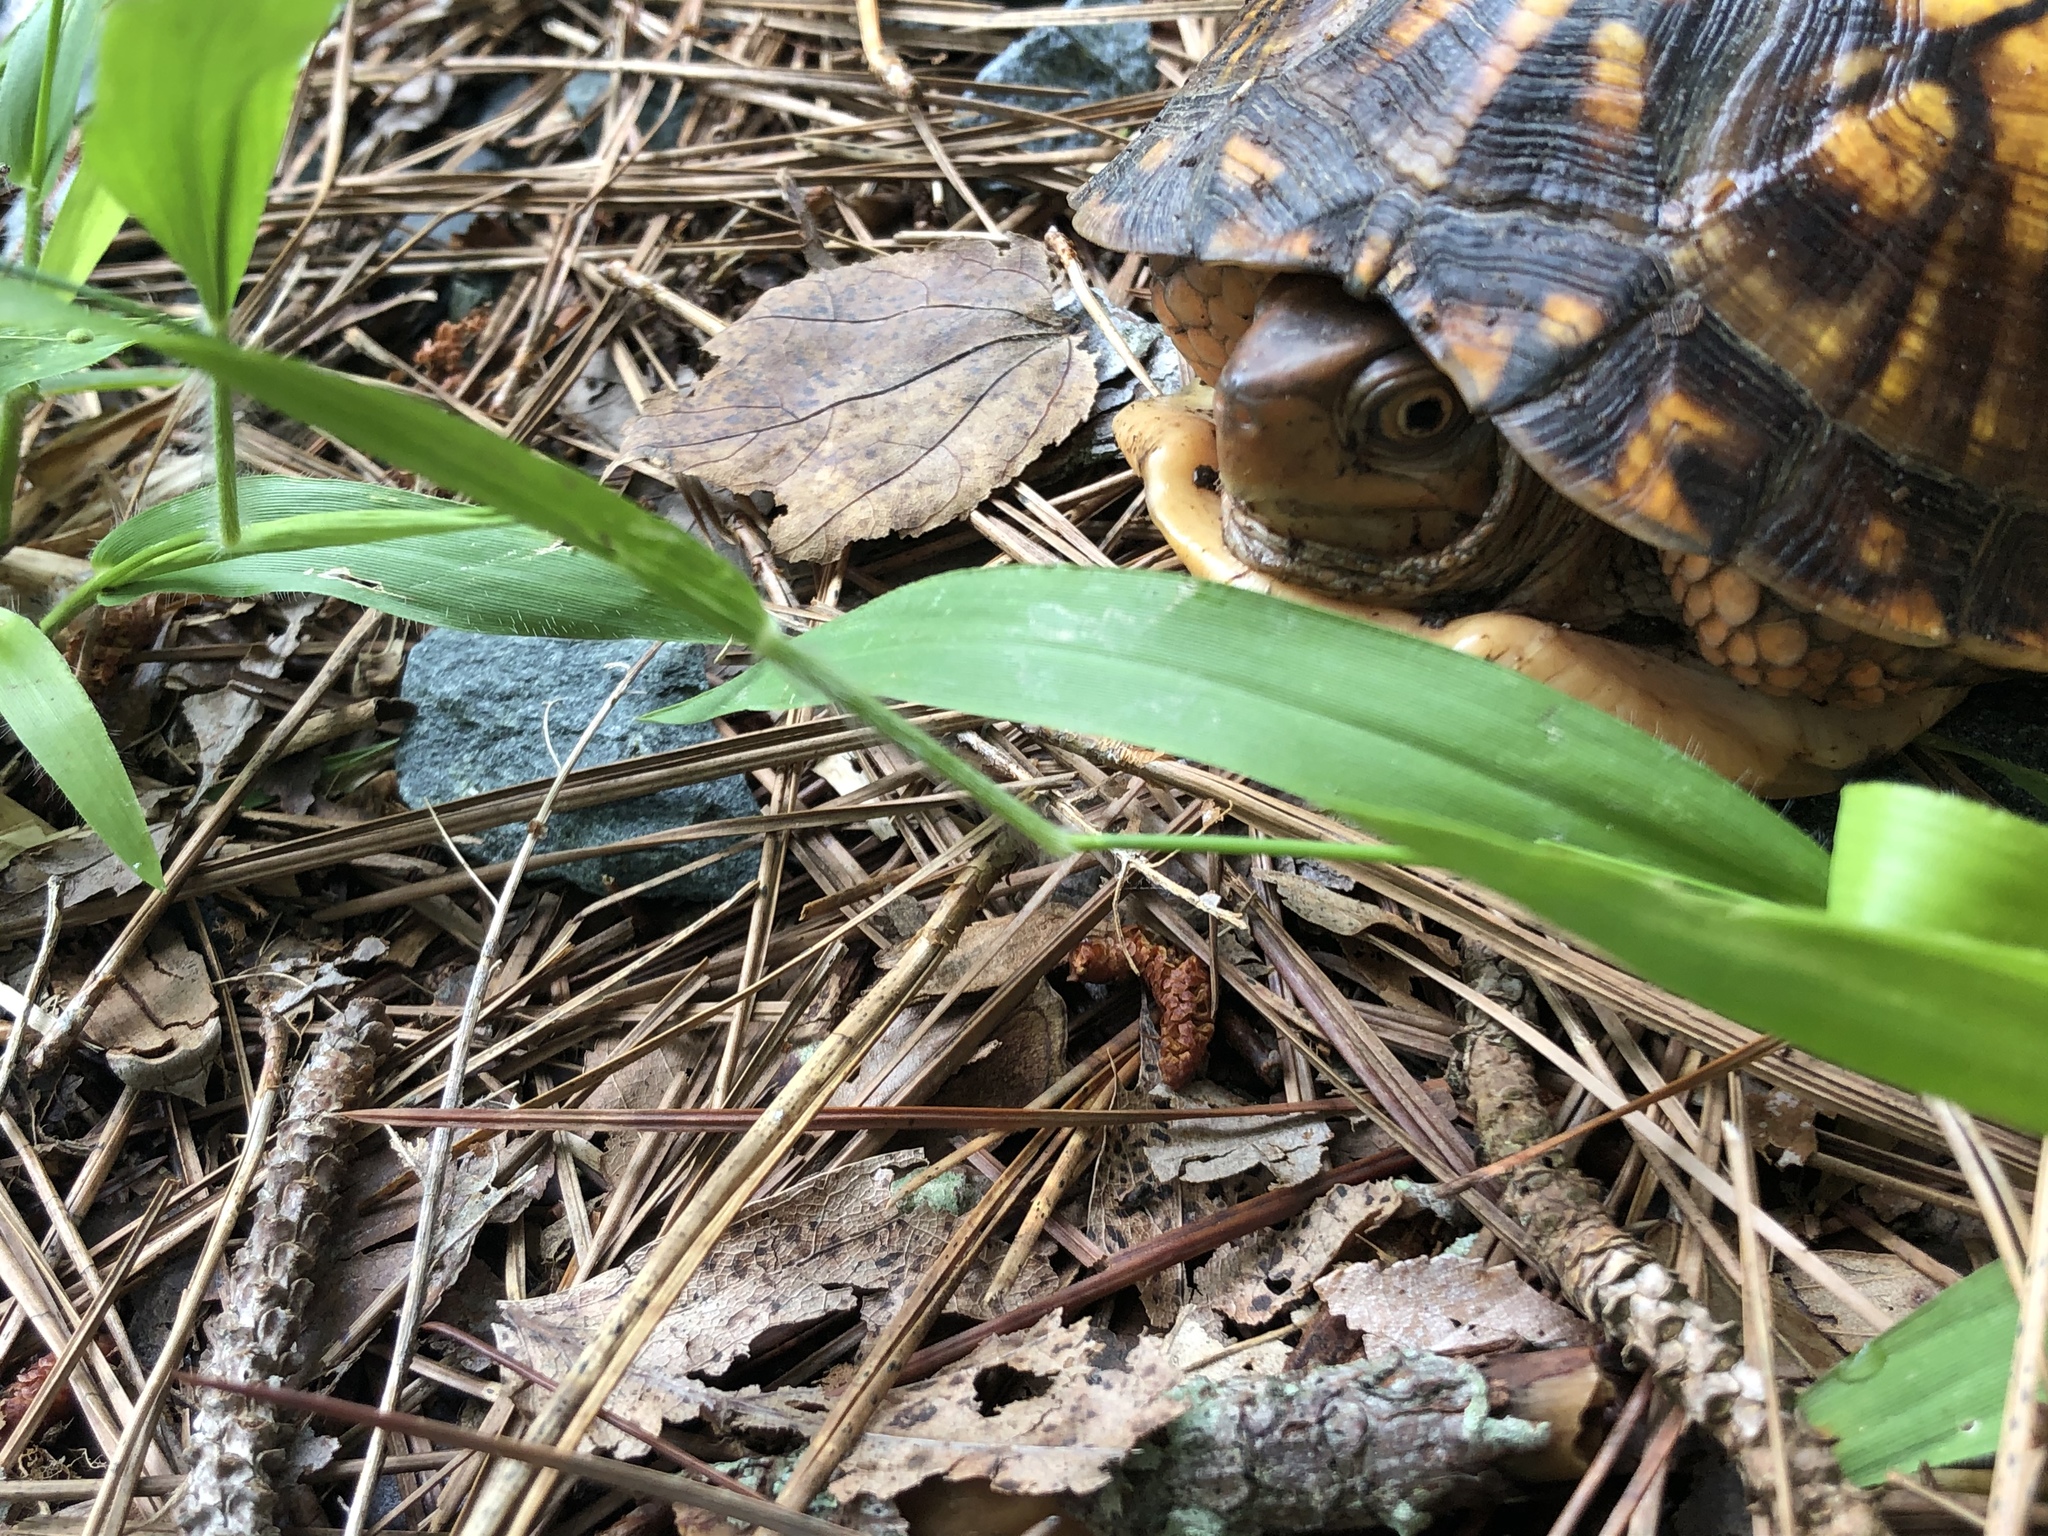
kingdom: Animalia
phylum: Chordata
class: Testudines
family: Emydidae
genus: Terrapene
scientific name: Terrapene carolina
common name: Common box turtle
